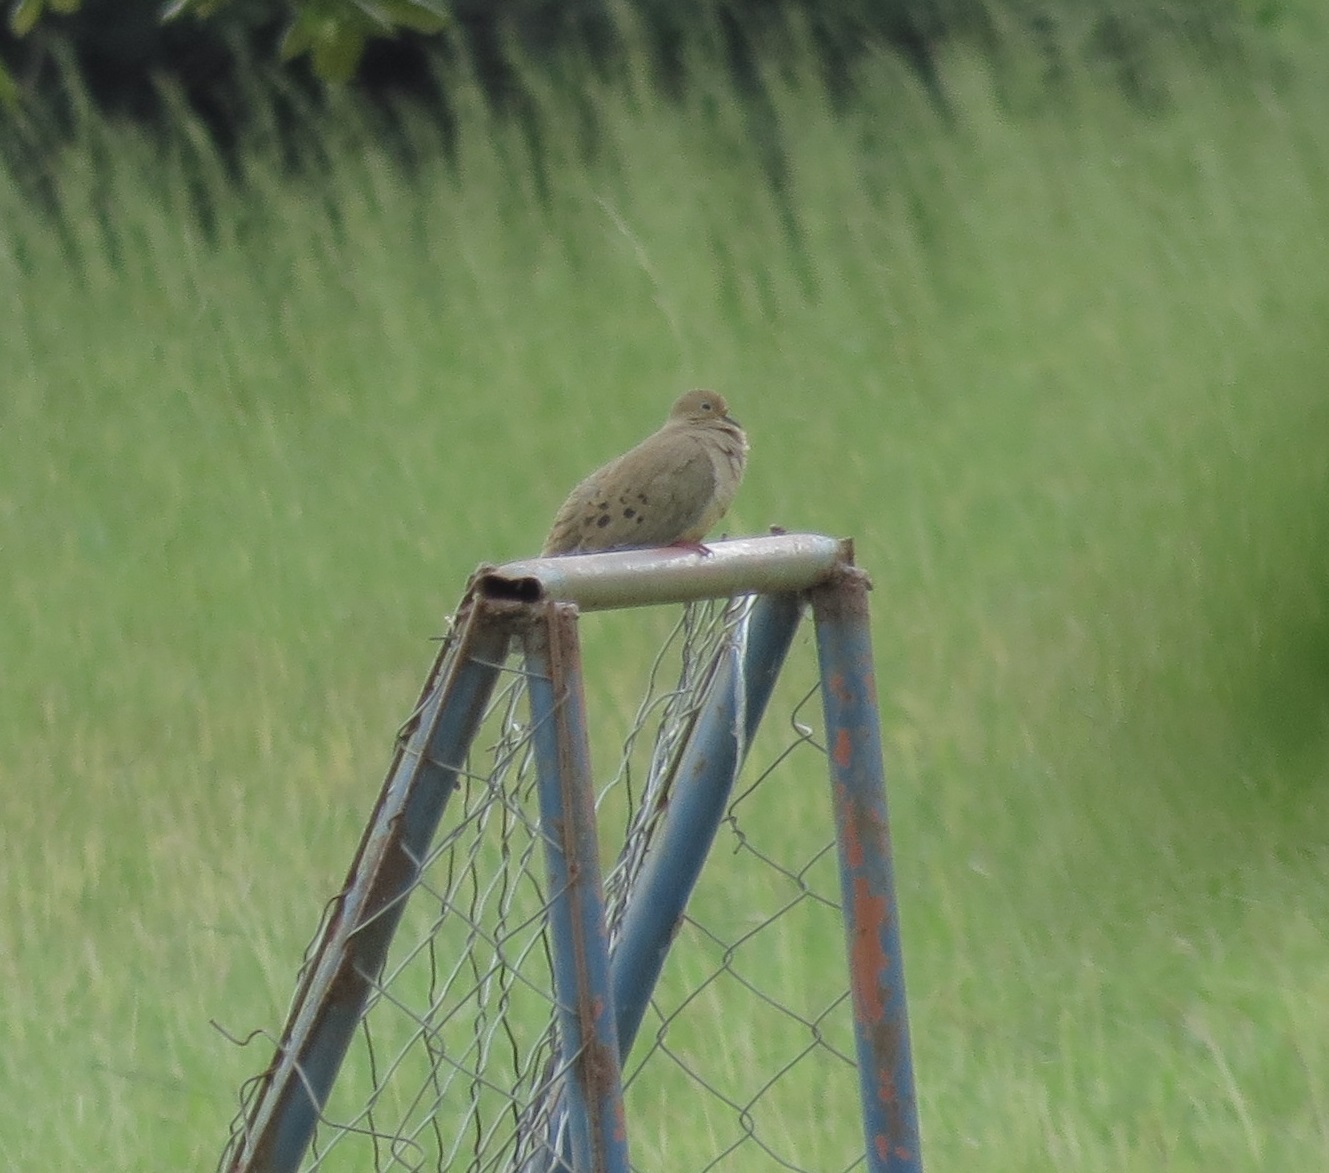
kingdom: Animalia
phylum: Chordata
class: Aves
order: Columbiformes
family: Columbidae
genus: Zenaida
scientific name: Zenaida macroura
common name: Mourning dove
